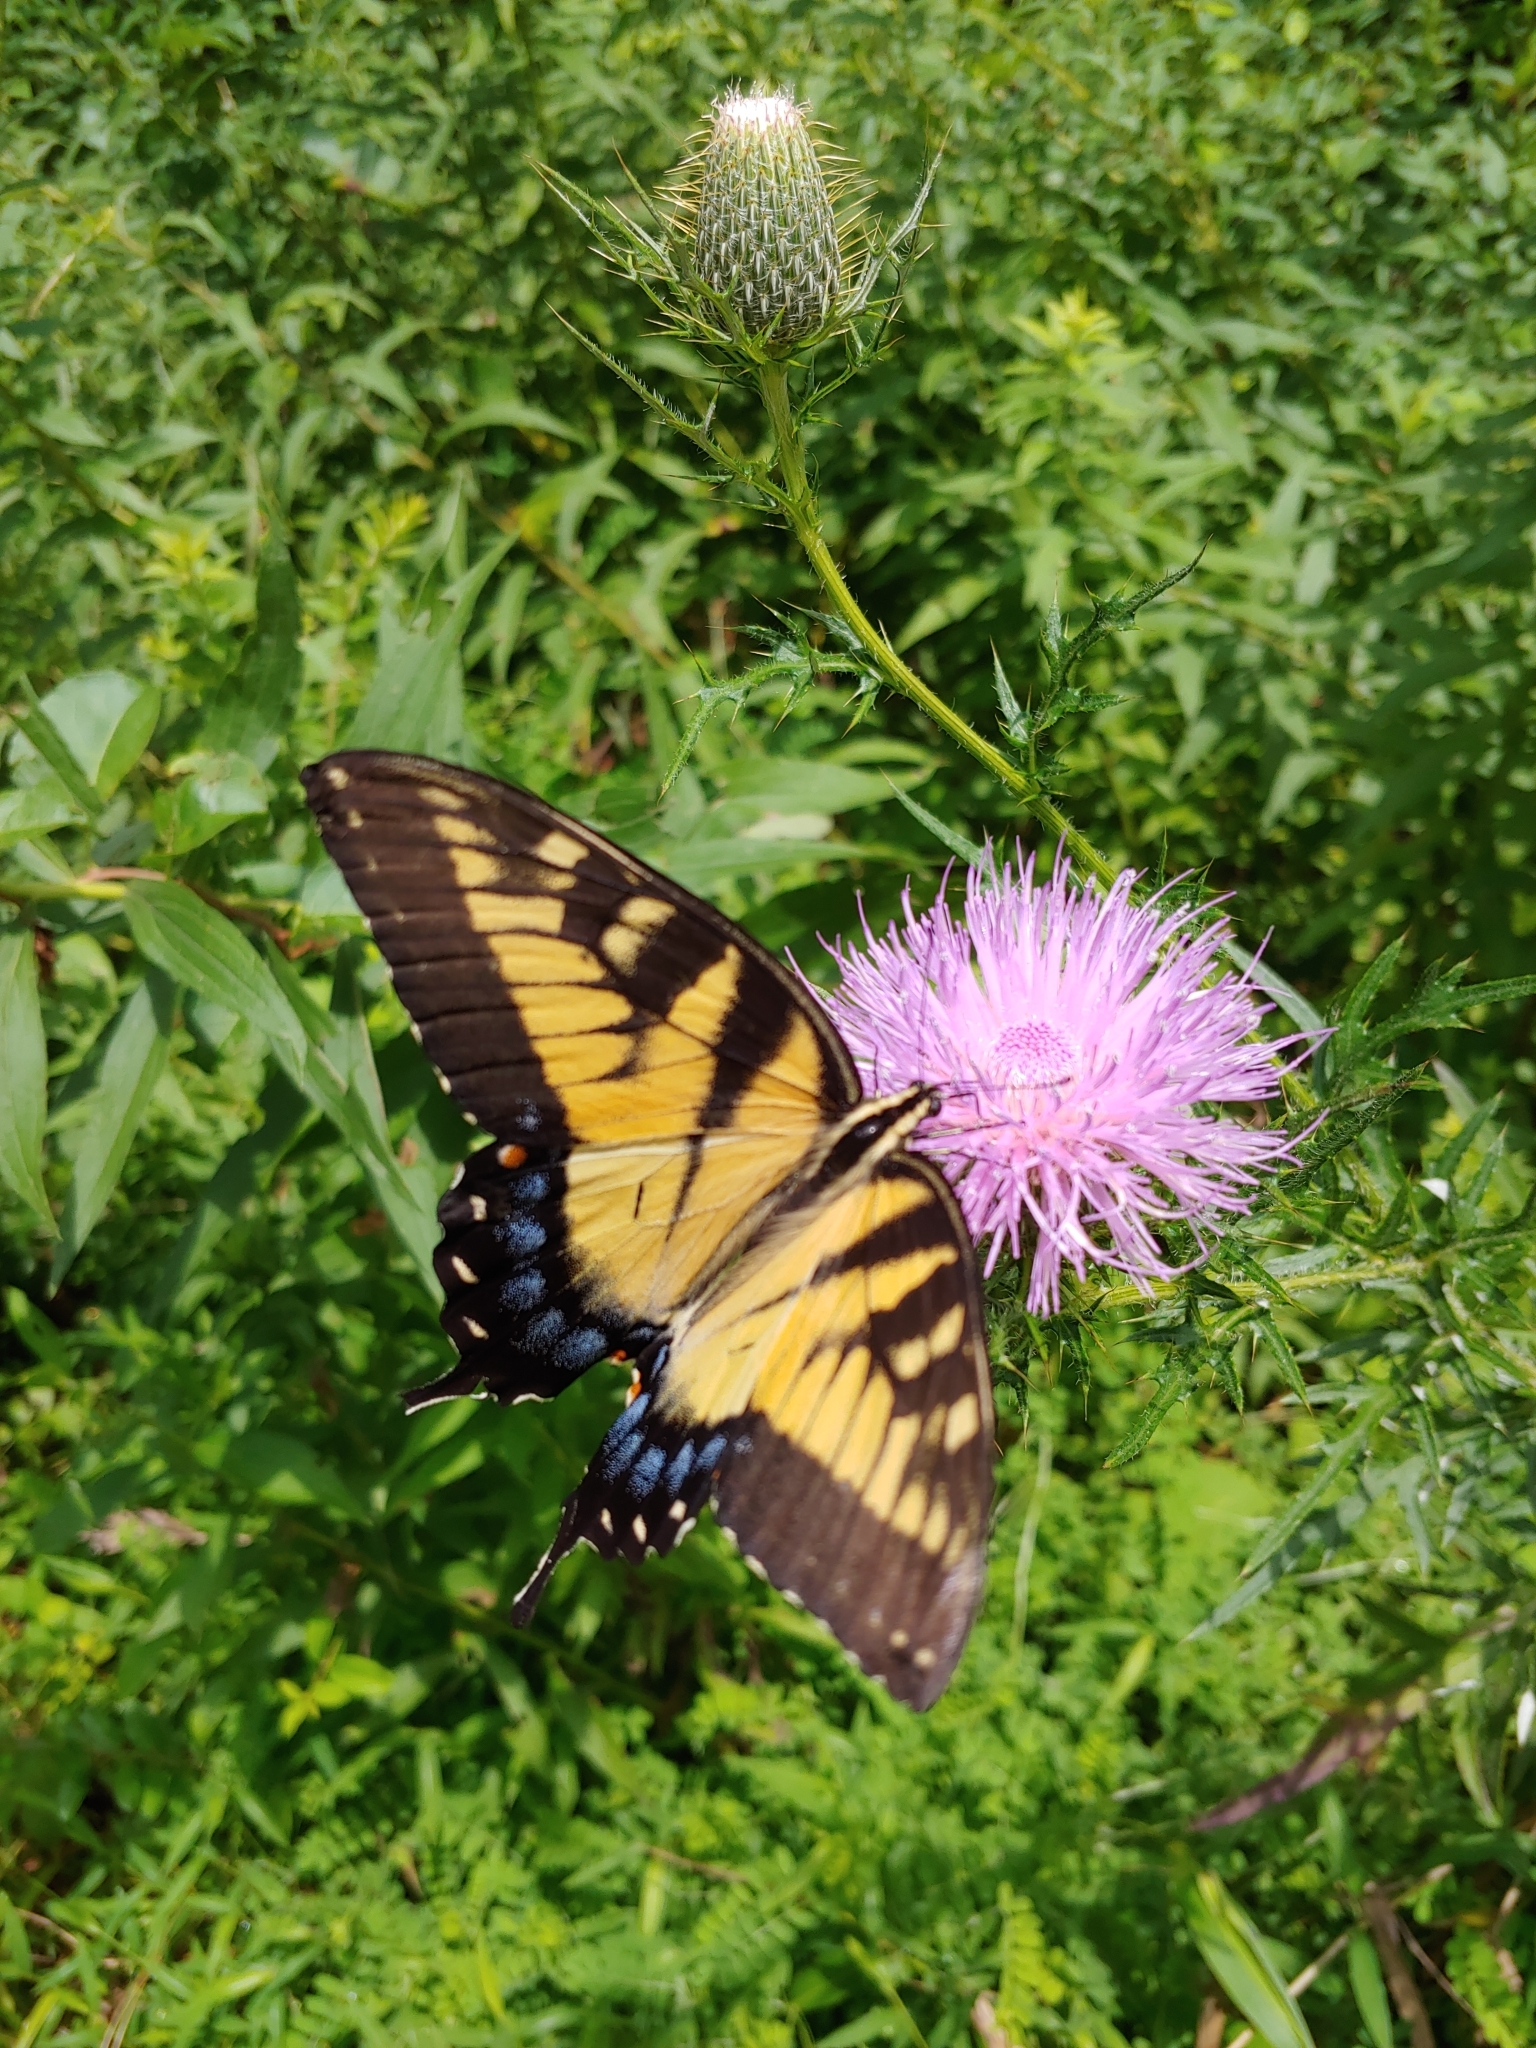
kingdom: Animalia
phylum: Arthropoda
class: Insecta
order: Lepidoptera
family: Papilionidae
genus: Papilio
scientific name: Papilio glaucus
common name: Tiger swallowtail
